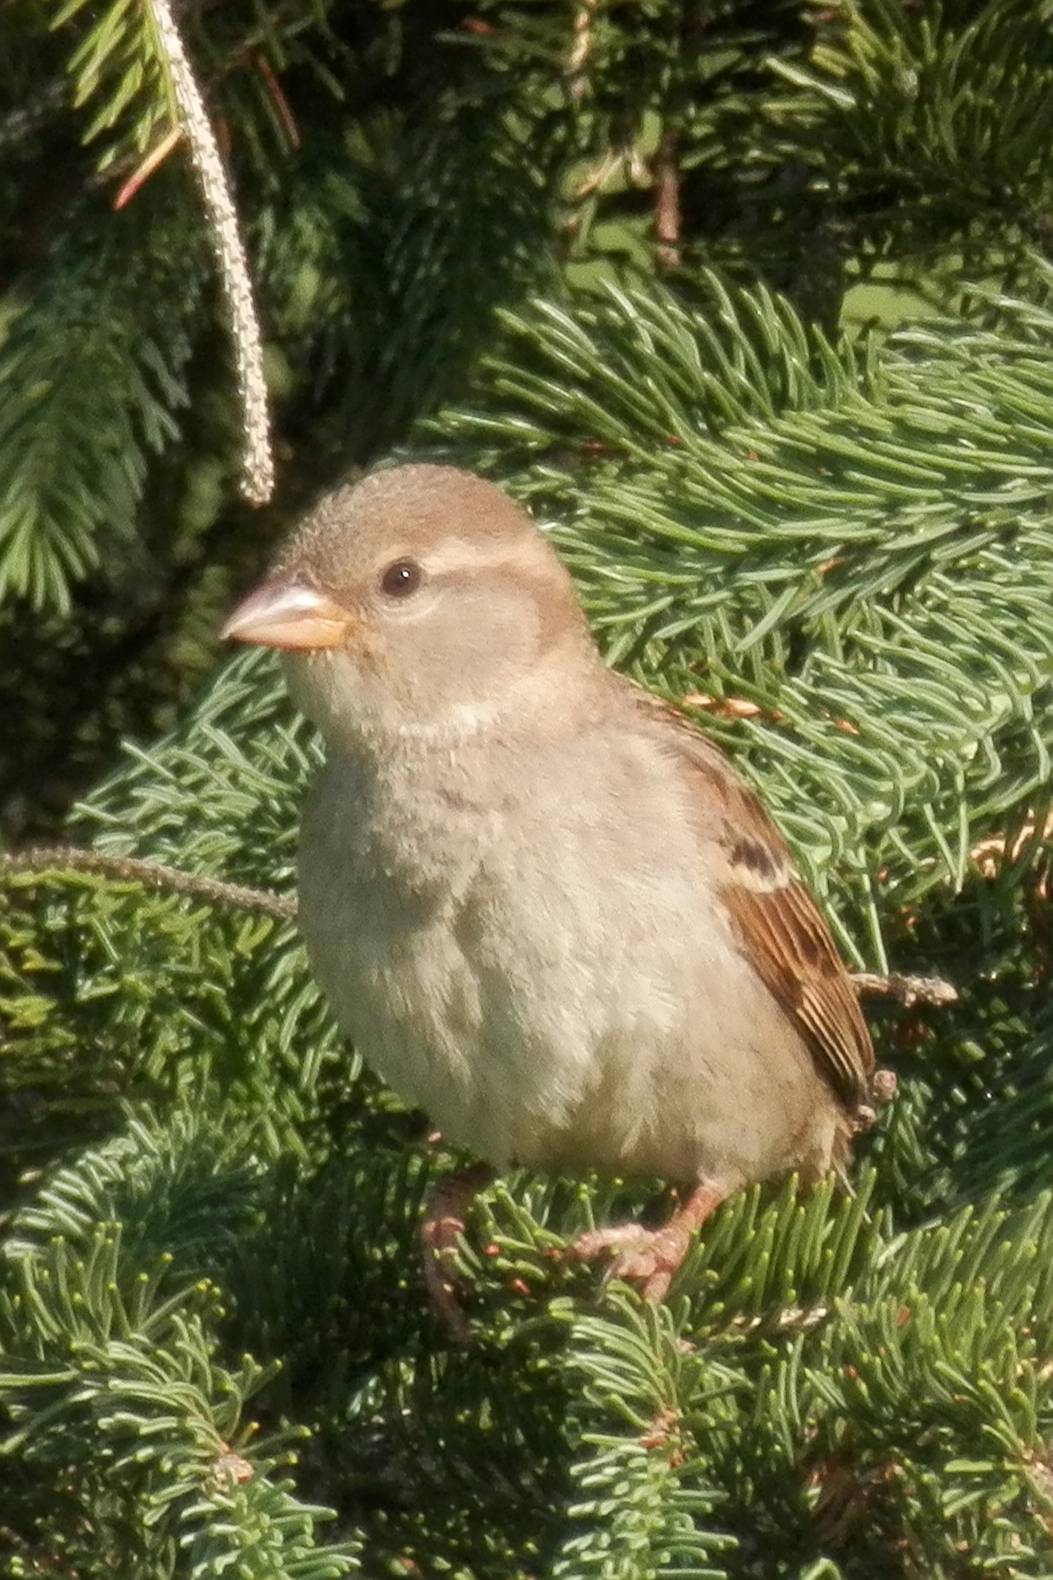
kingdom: Animalia
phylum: Chordata
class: Aves
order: Passeriformes
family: Passeridae
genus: Passer
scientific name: Passer domesticus
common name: House sparrow
